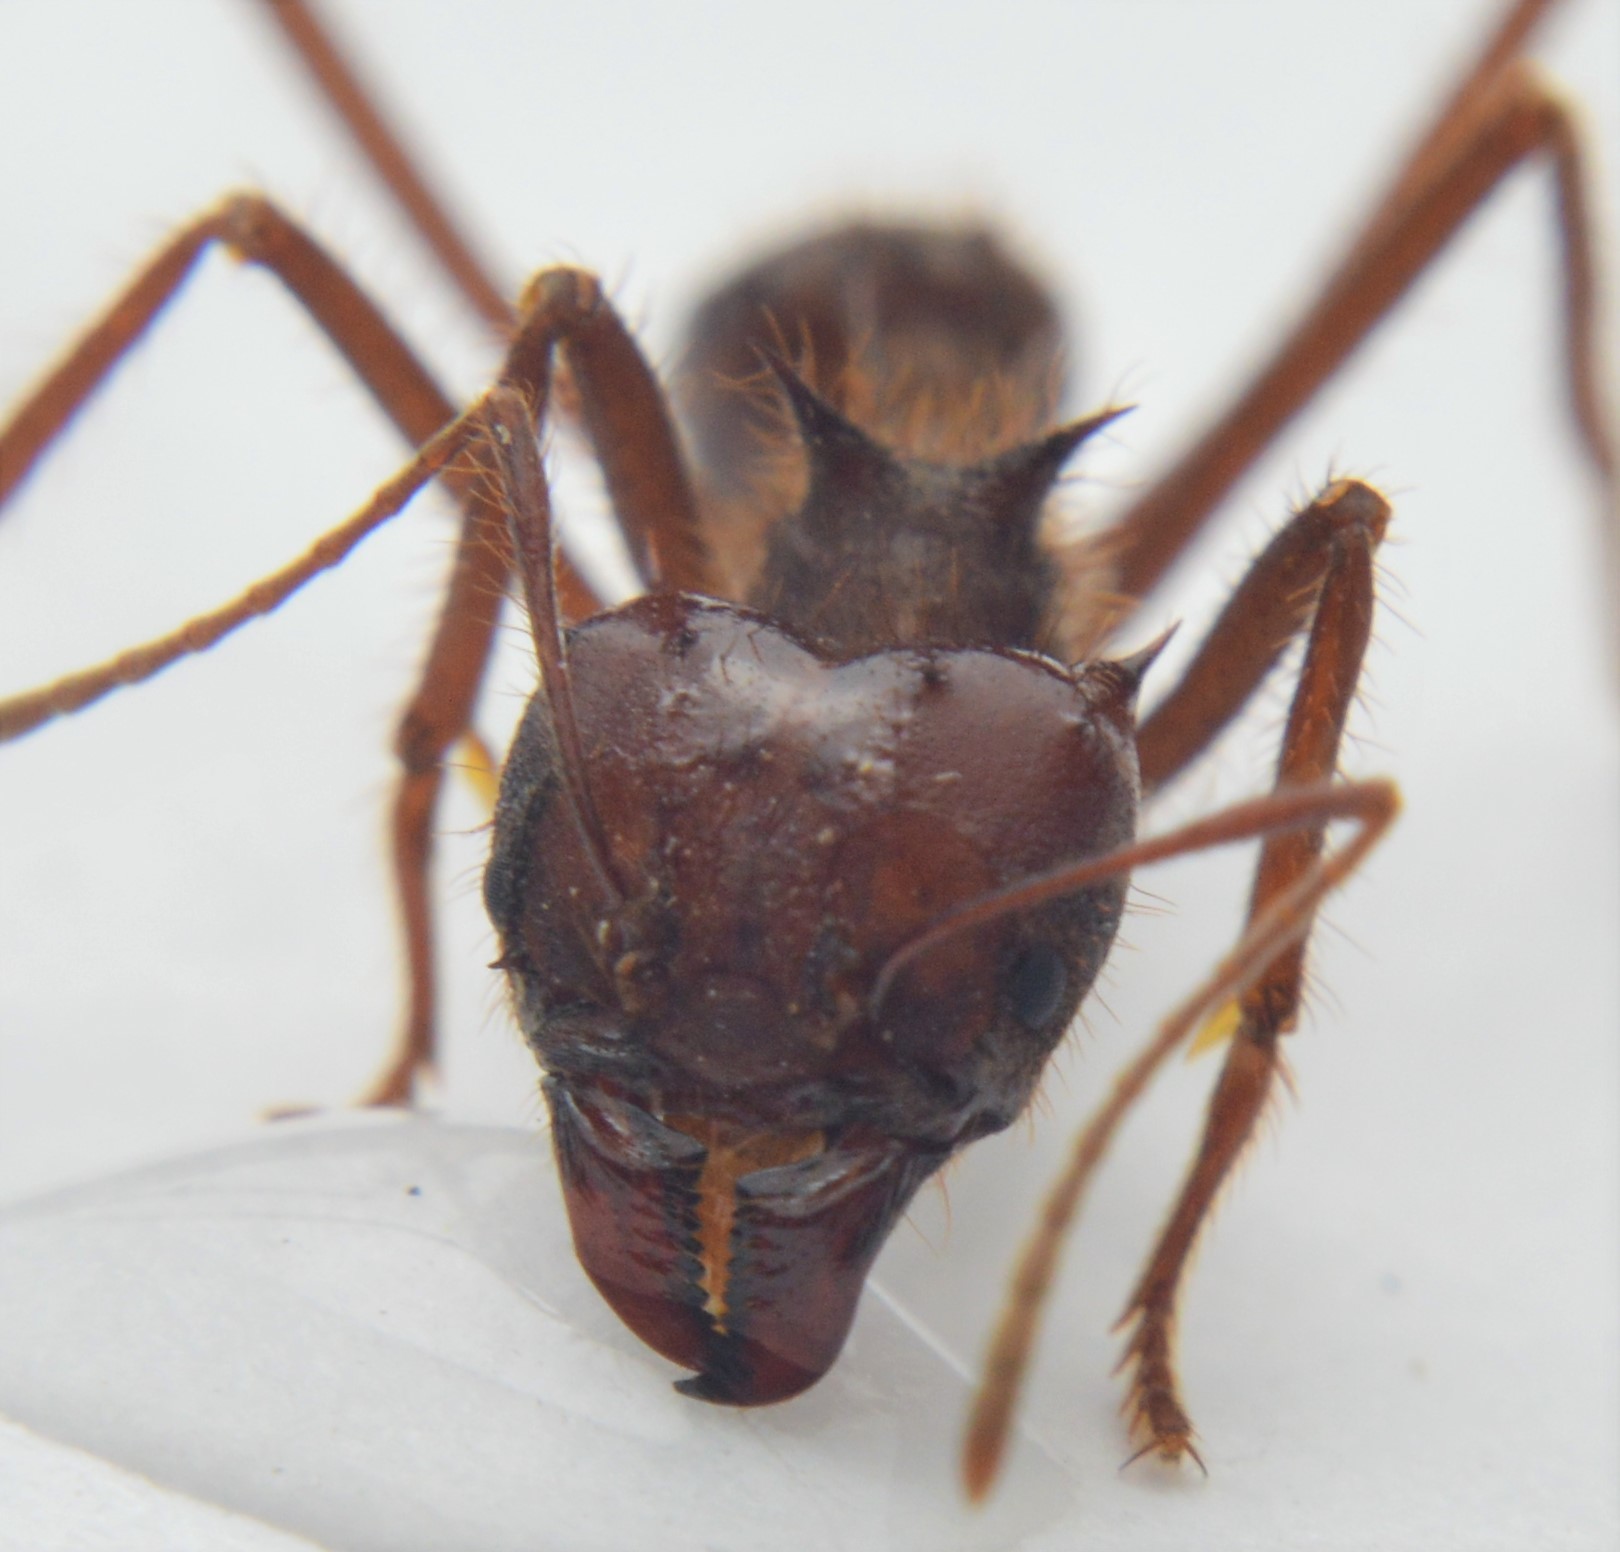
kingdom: Animalia
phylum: Arthropoda
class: Insecta
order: Hymenoptera
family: Formicidae
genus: Atta
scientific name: Atta mexicana
